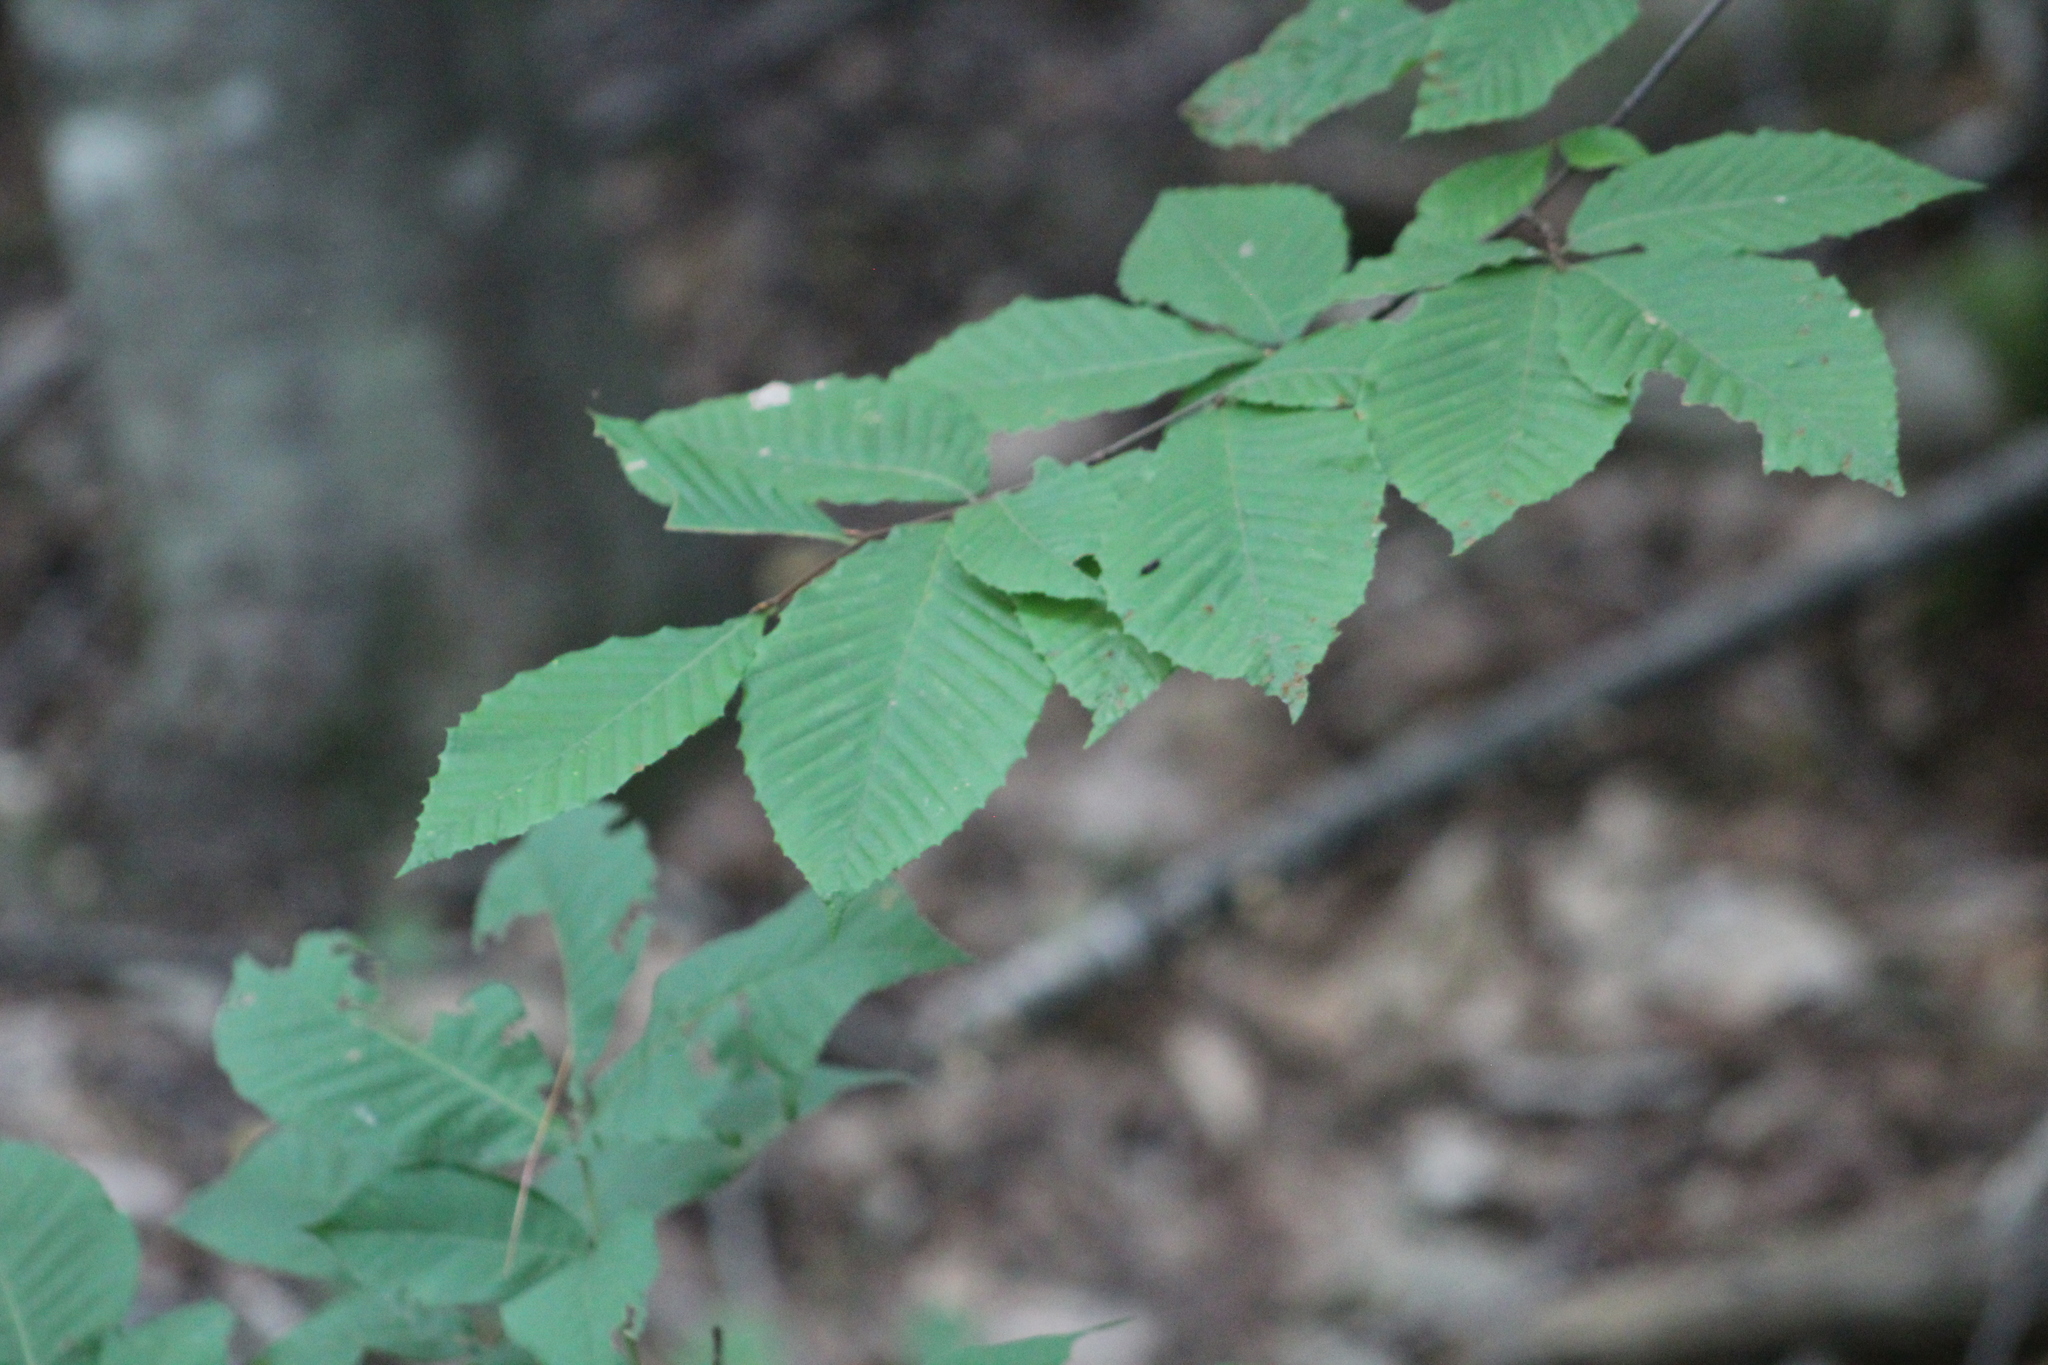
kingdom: Plantae
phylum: Tracheophyta
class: Magnoliopsida
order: Fagales
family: Fagaceae
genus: Fagus
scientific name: Fagus grandifolia
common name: American beech
